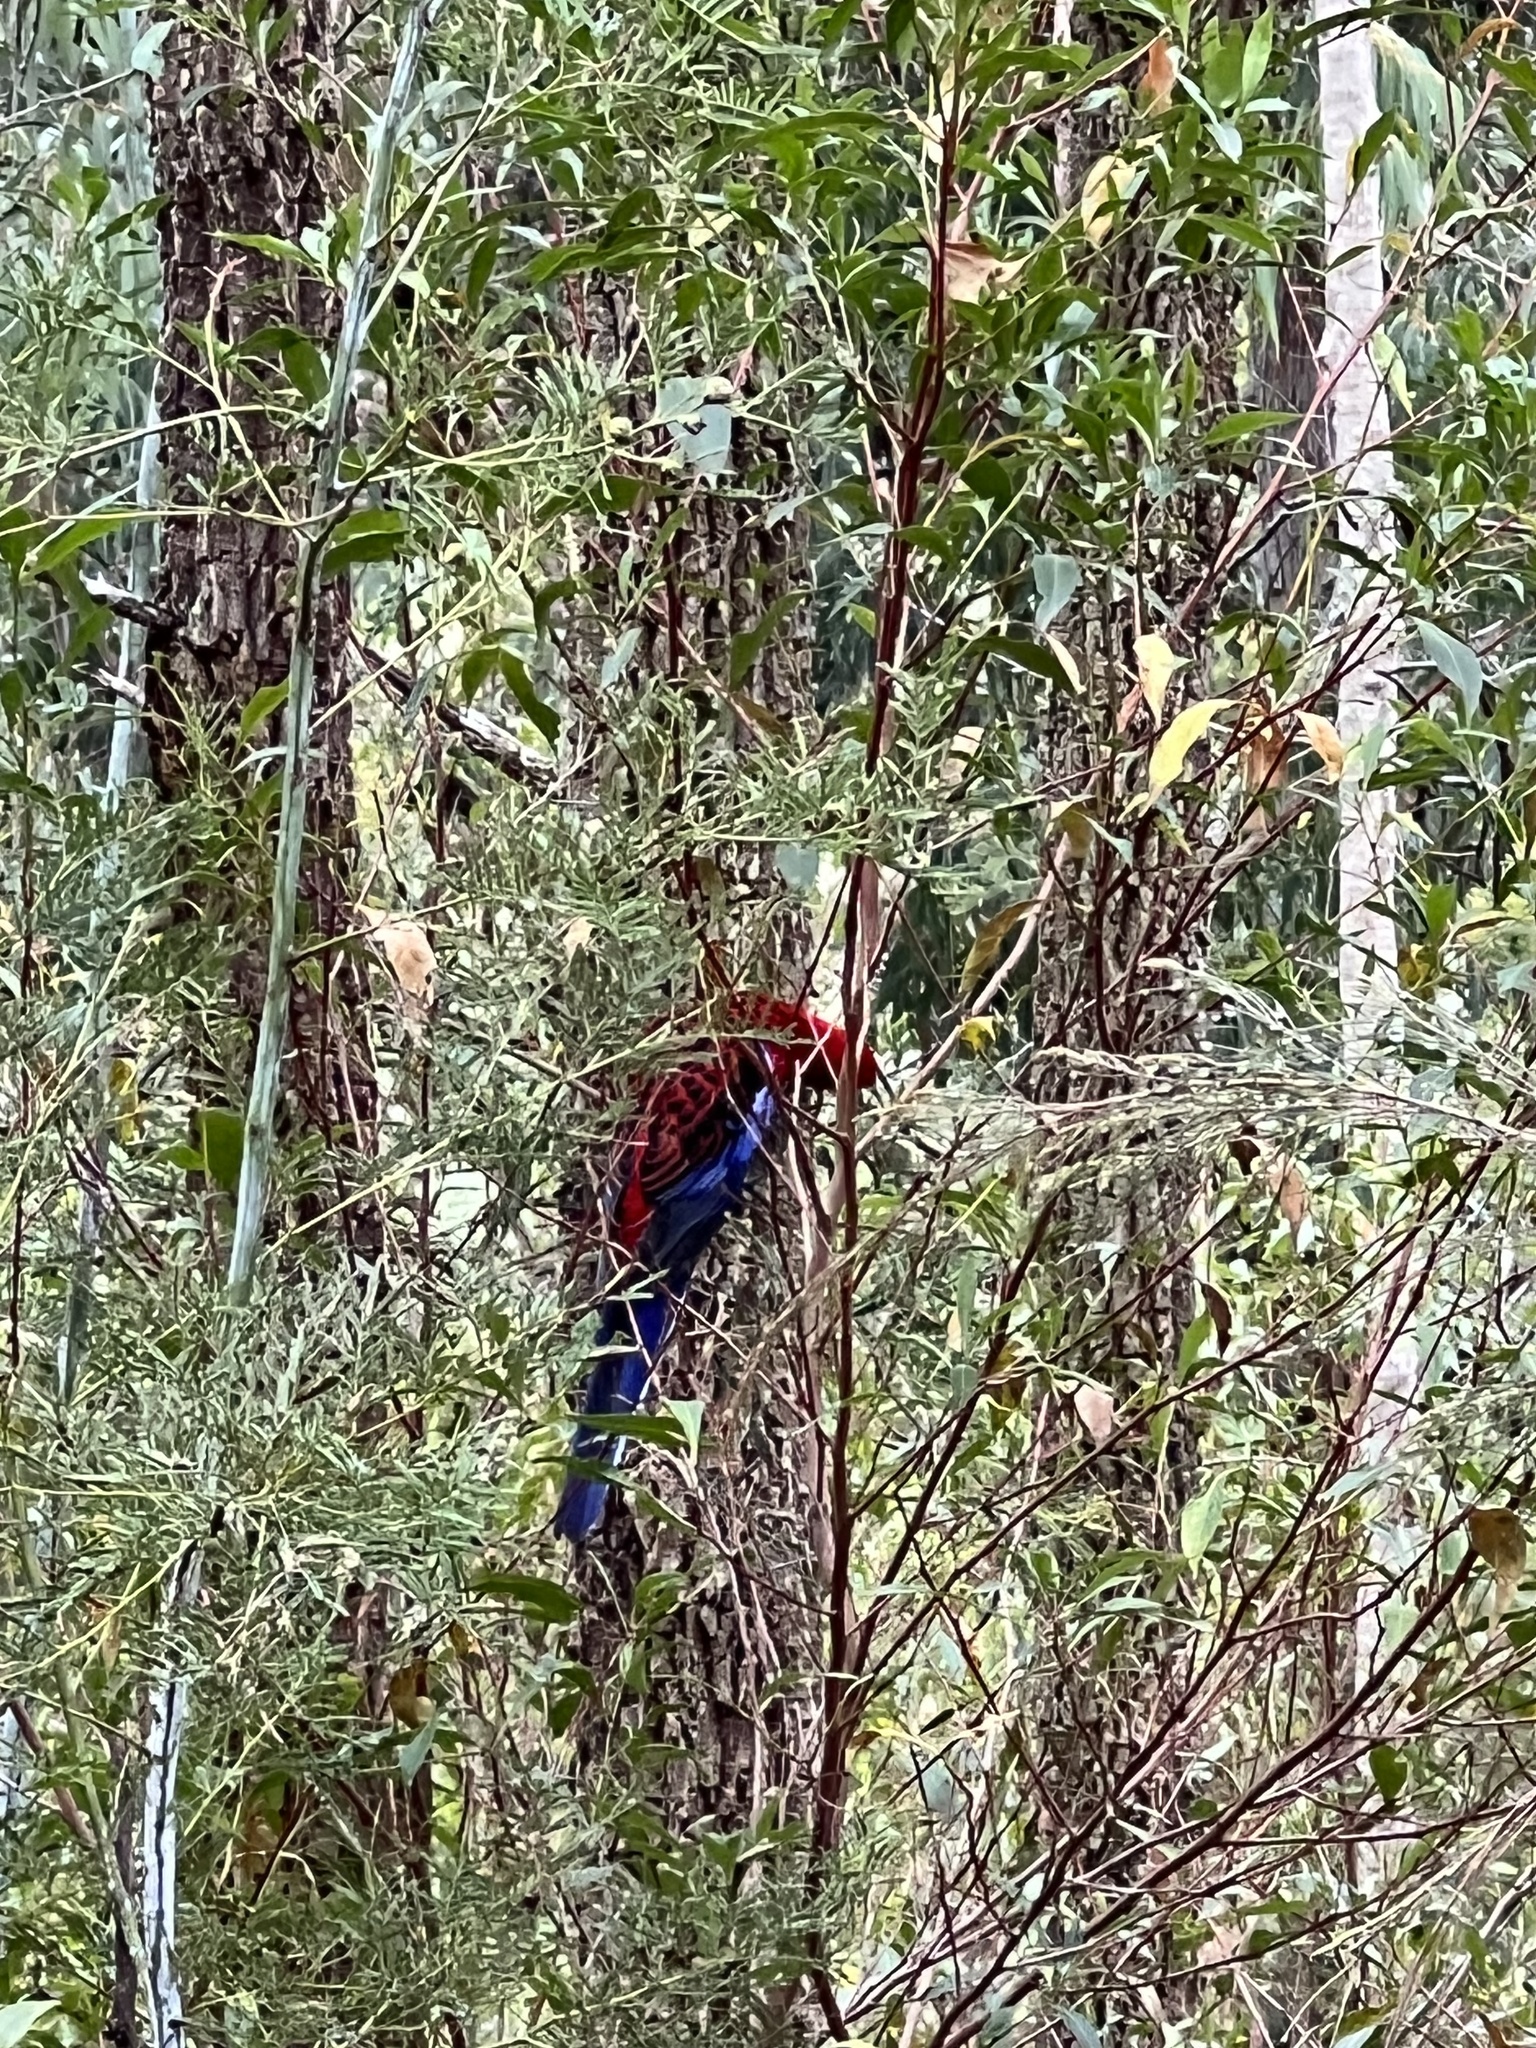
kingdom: Animalia
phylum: Chordata
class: Aves
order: Psittaciformes
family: Psittacidae
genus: Platycercus
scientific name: Platycercus elegans
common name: Crimson rosella
